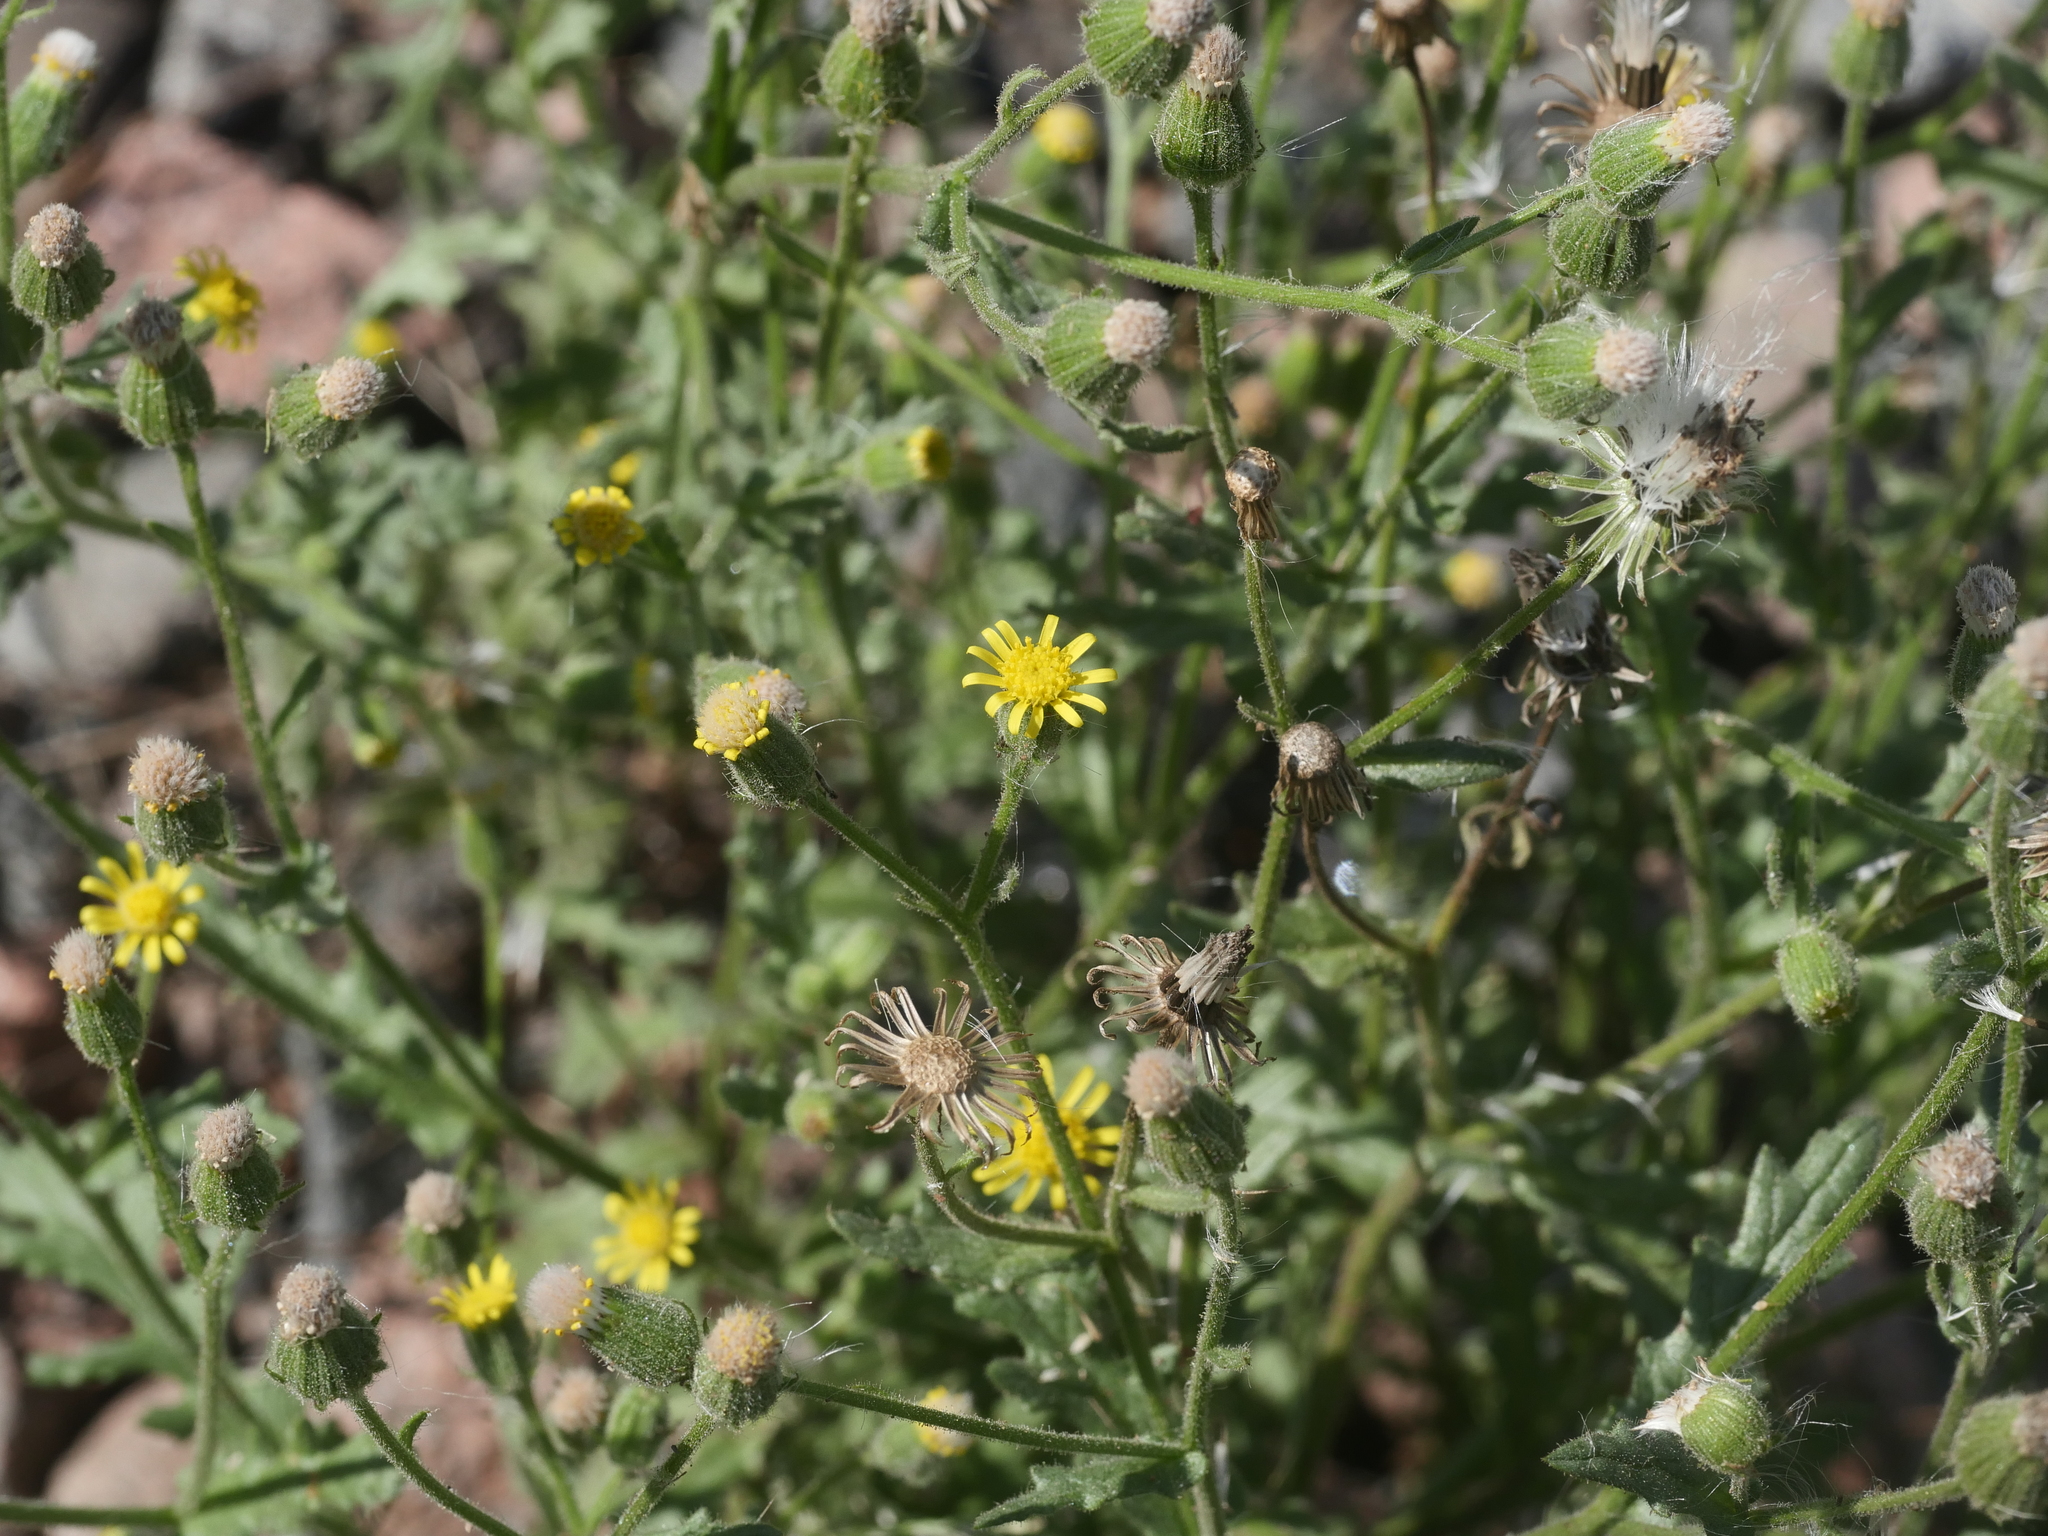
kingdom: Plantae
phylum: Tracheophyta
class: Magnoliopsida
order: Asterales
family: Asteraceae
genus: Senecio
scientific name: Senecio viscosus
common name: Sticky groundsel
